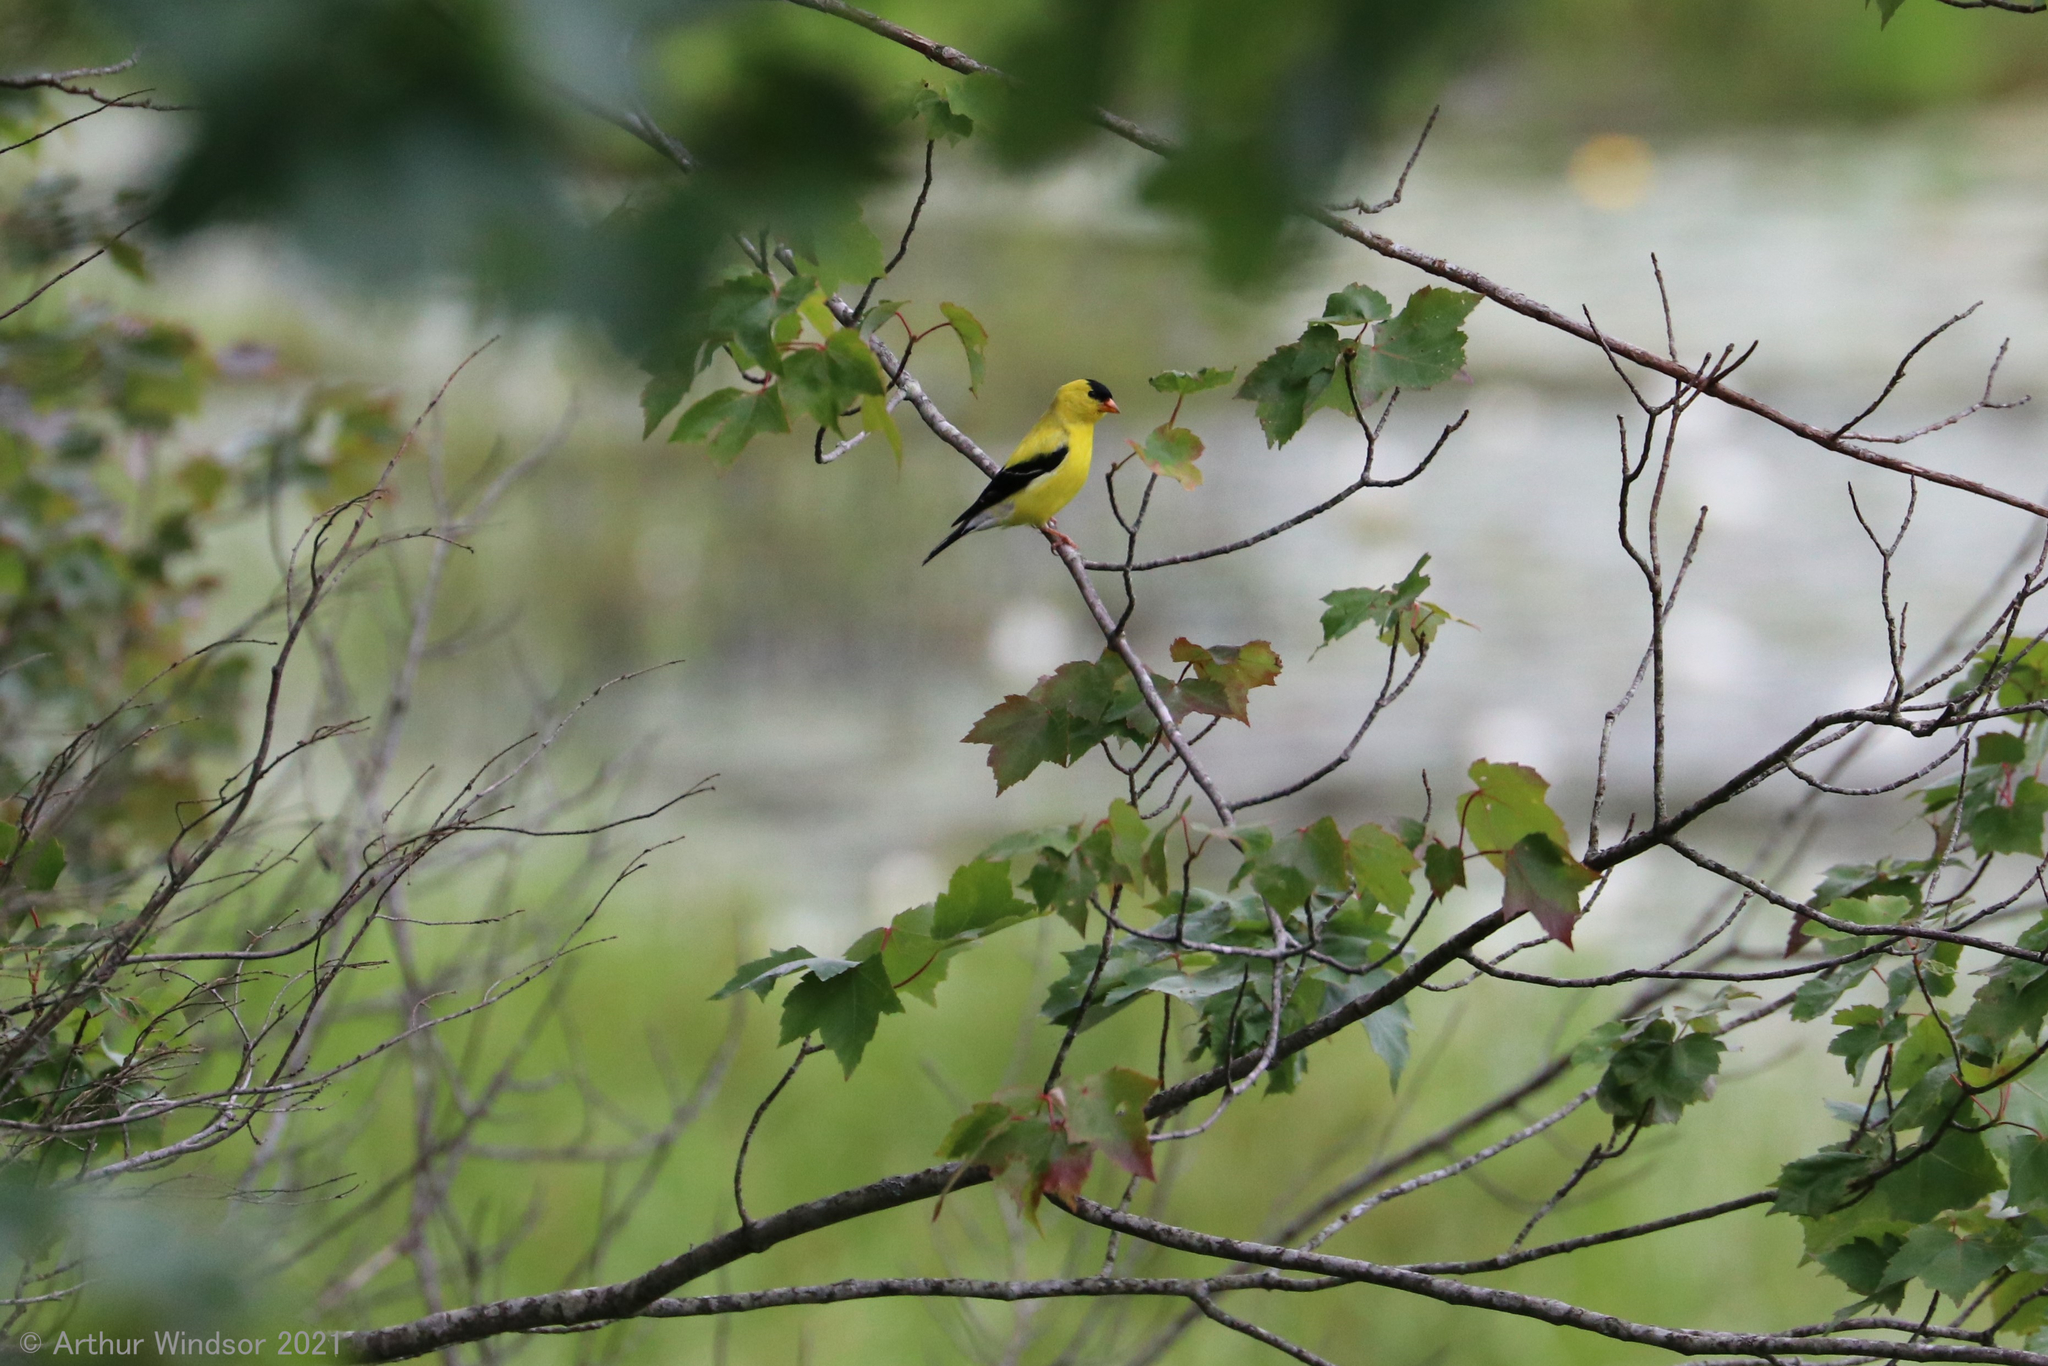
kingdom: Animalia
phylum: Chordata
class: Aves
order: Passeriformes
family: Fringillidae
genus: Spinus
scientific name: Spinus tristis
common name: American goldfinch
